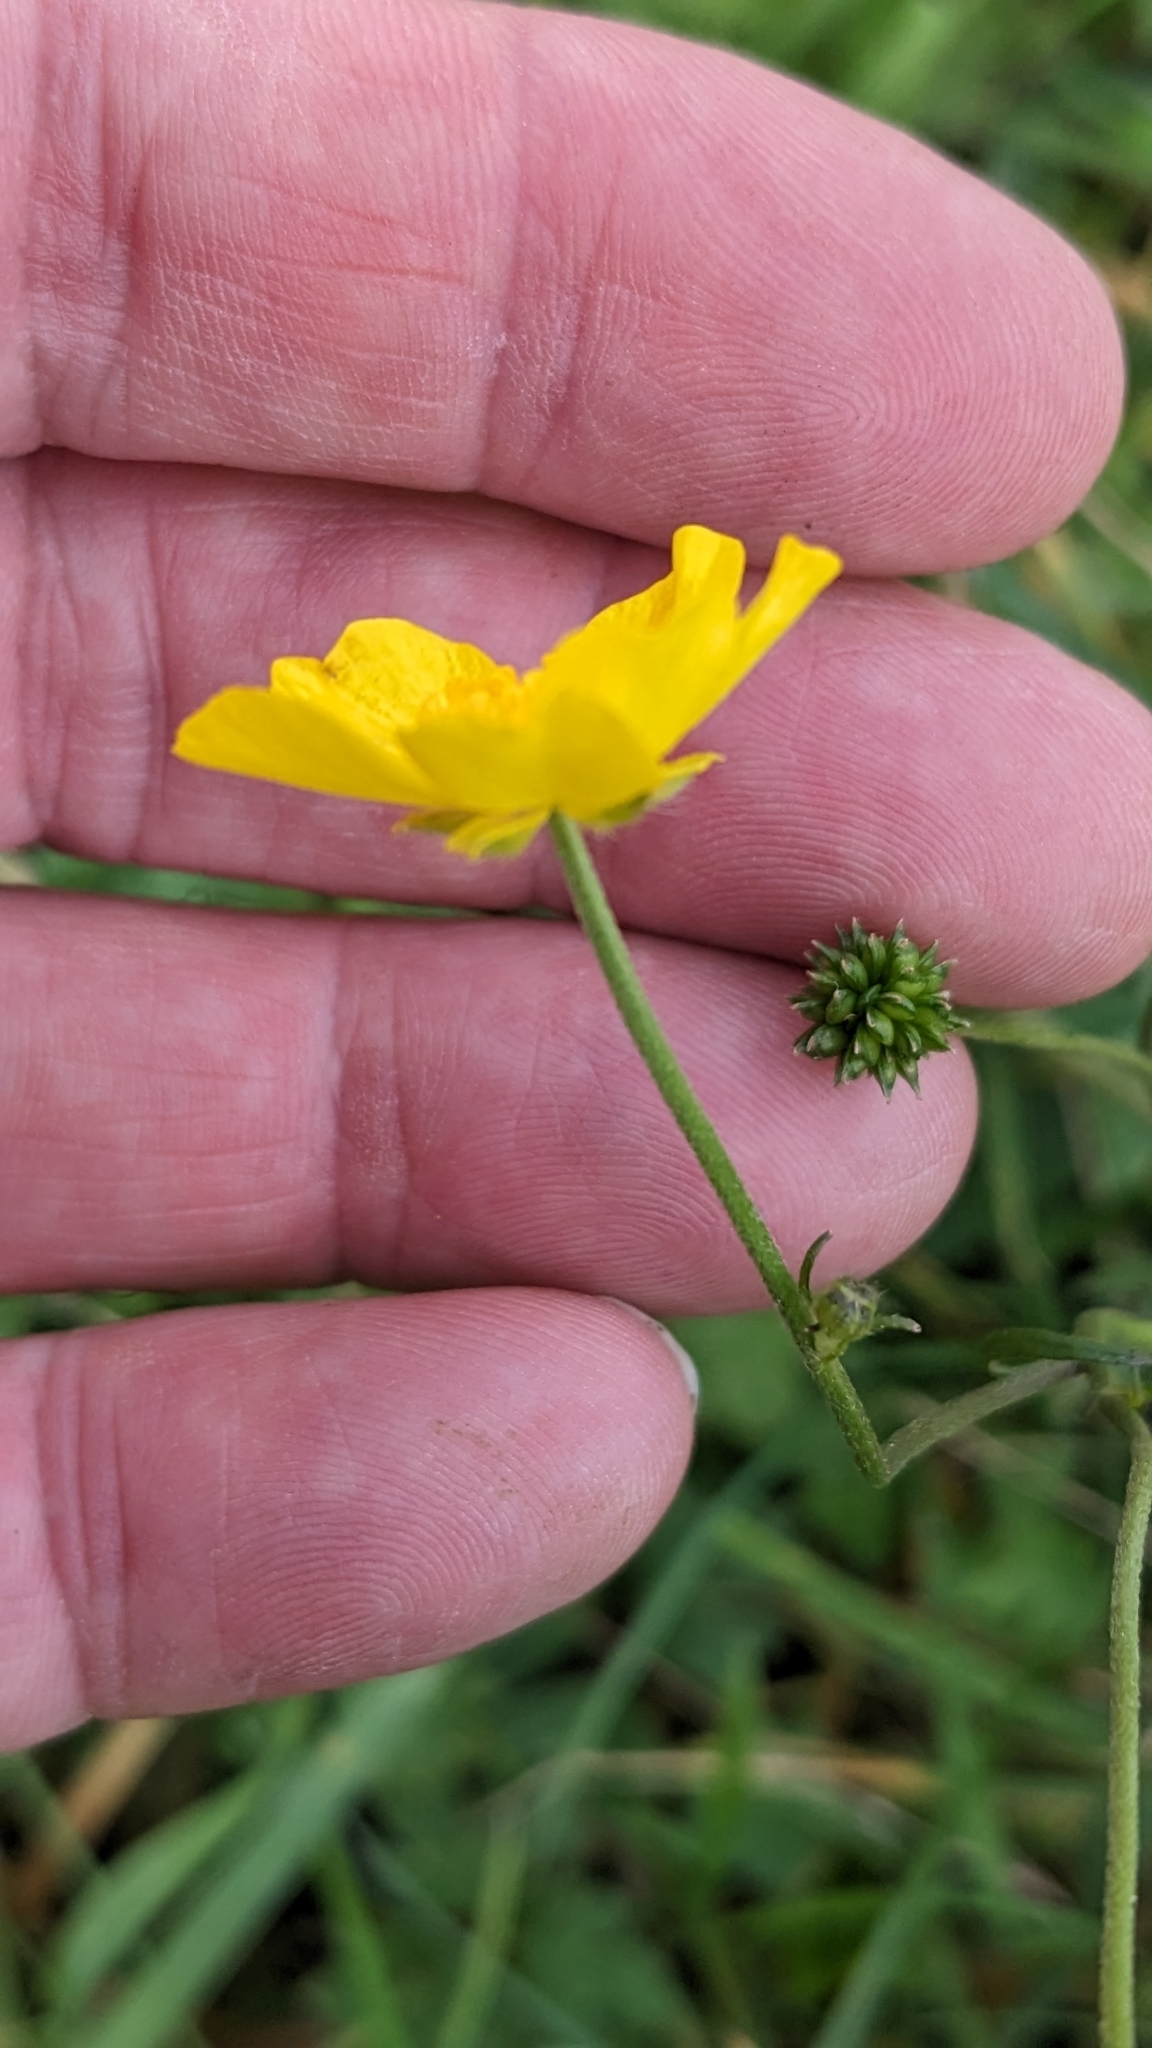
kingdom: Plantae
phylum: Tracheophyta
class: Magnoliopsida
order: Ranunculales
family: Ranunculaceae
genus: Ranunculus
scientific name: Ranunculus acris
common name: Meadow buttercup
